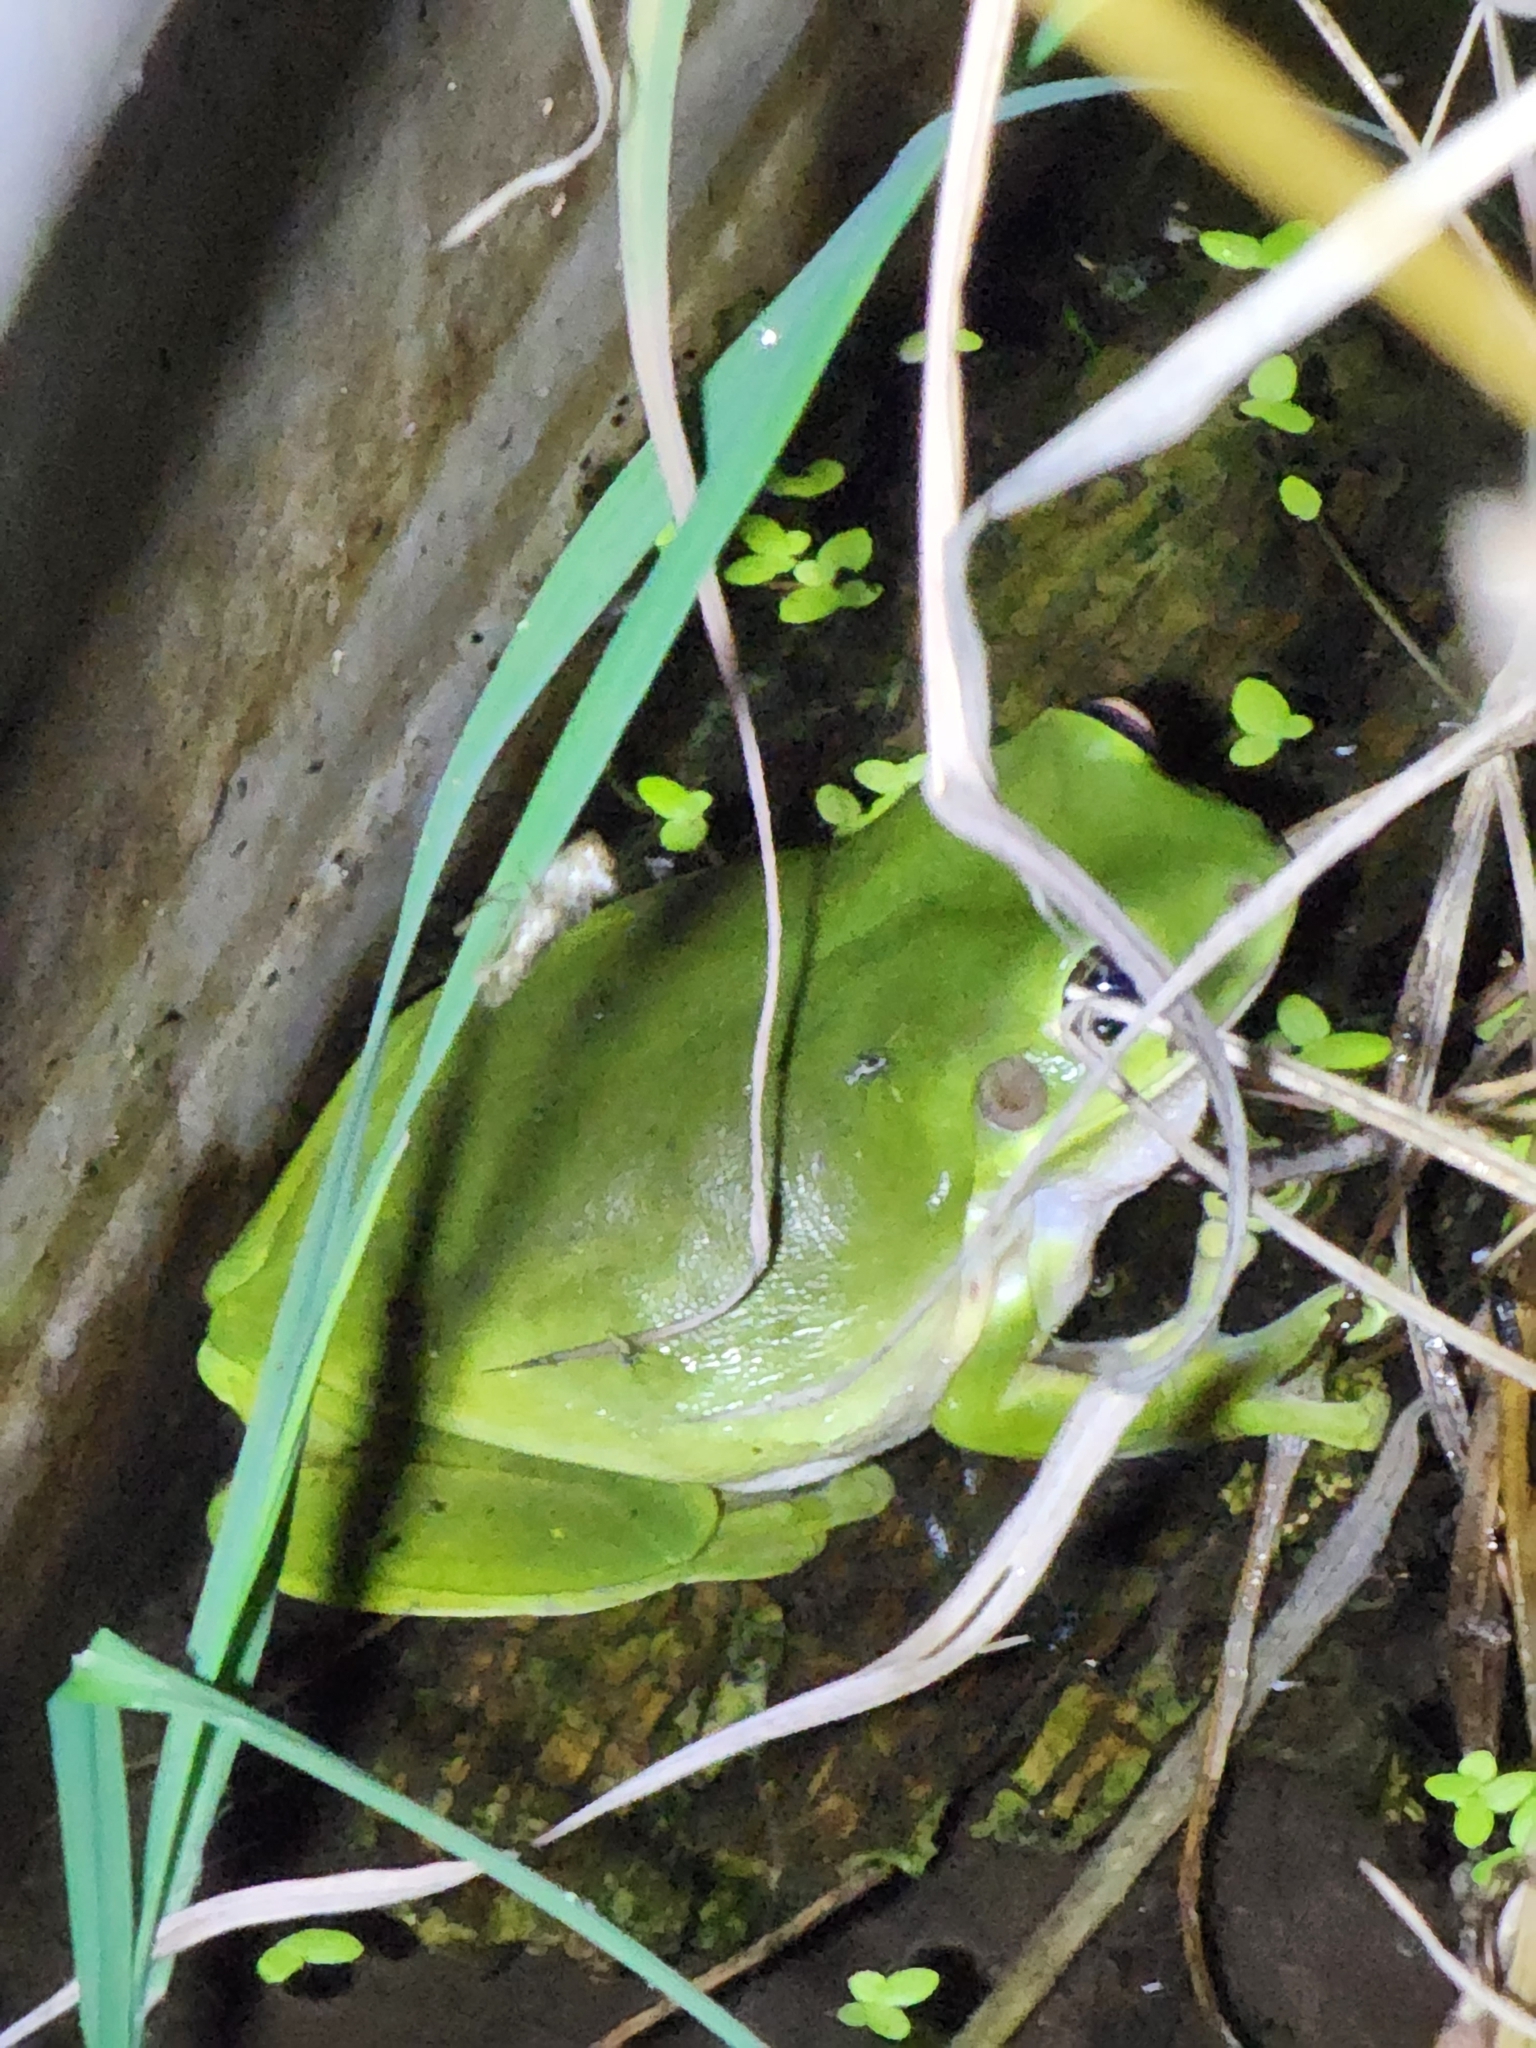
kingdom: Animalia
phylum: Chordata
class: Amphibia
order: Anura
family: Pelodryadidae
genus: Ranoidea
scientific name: Ranoidea caerulea
